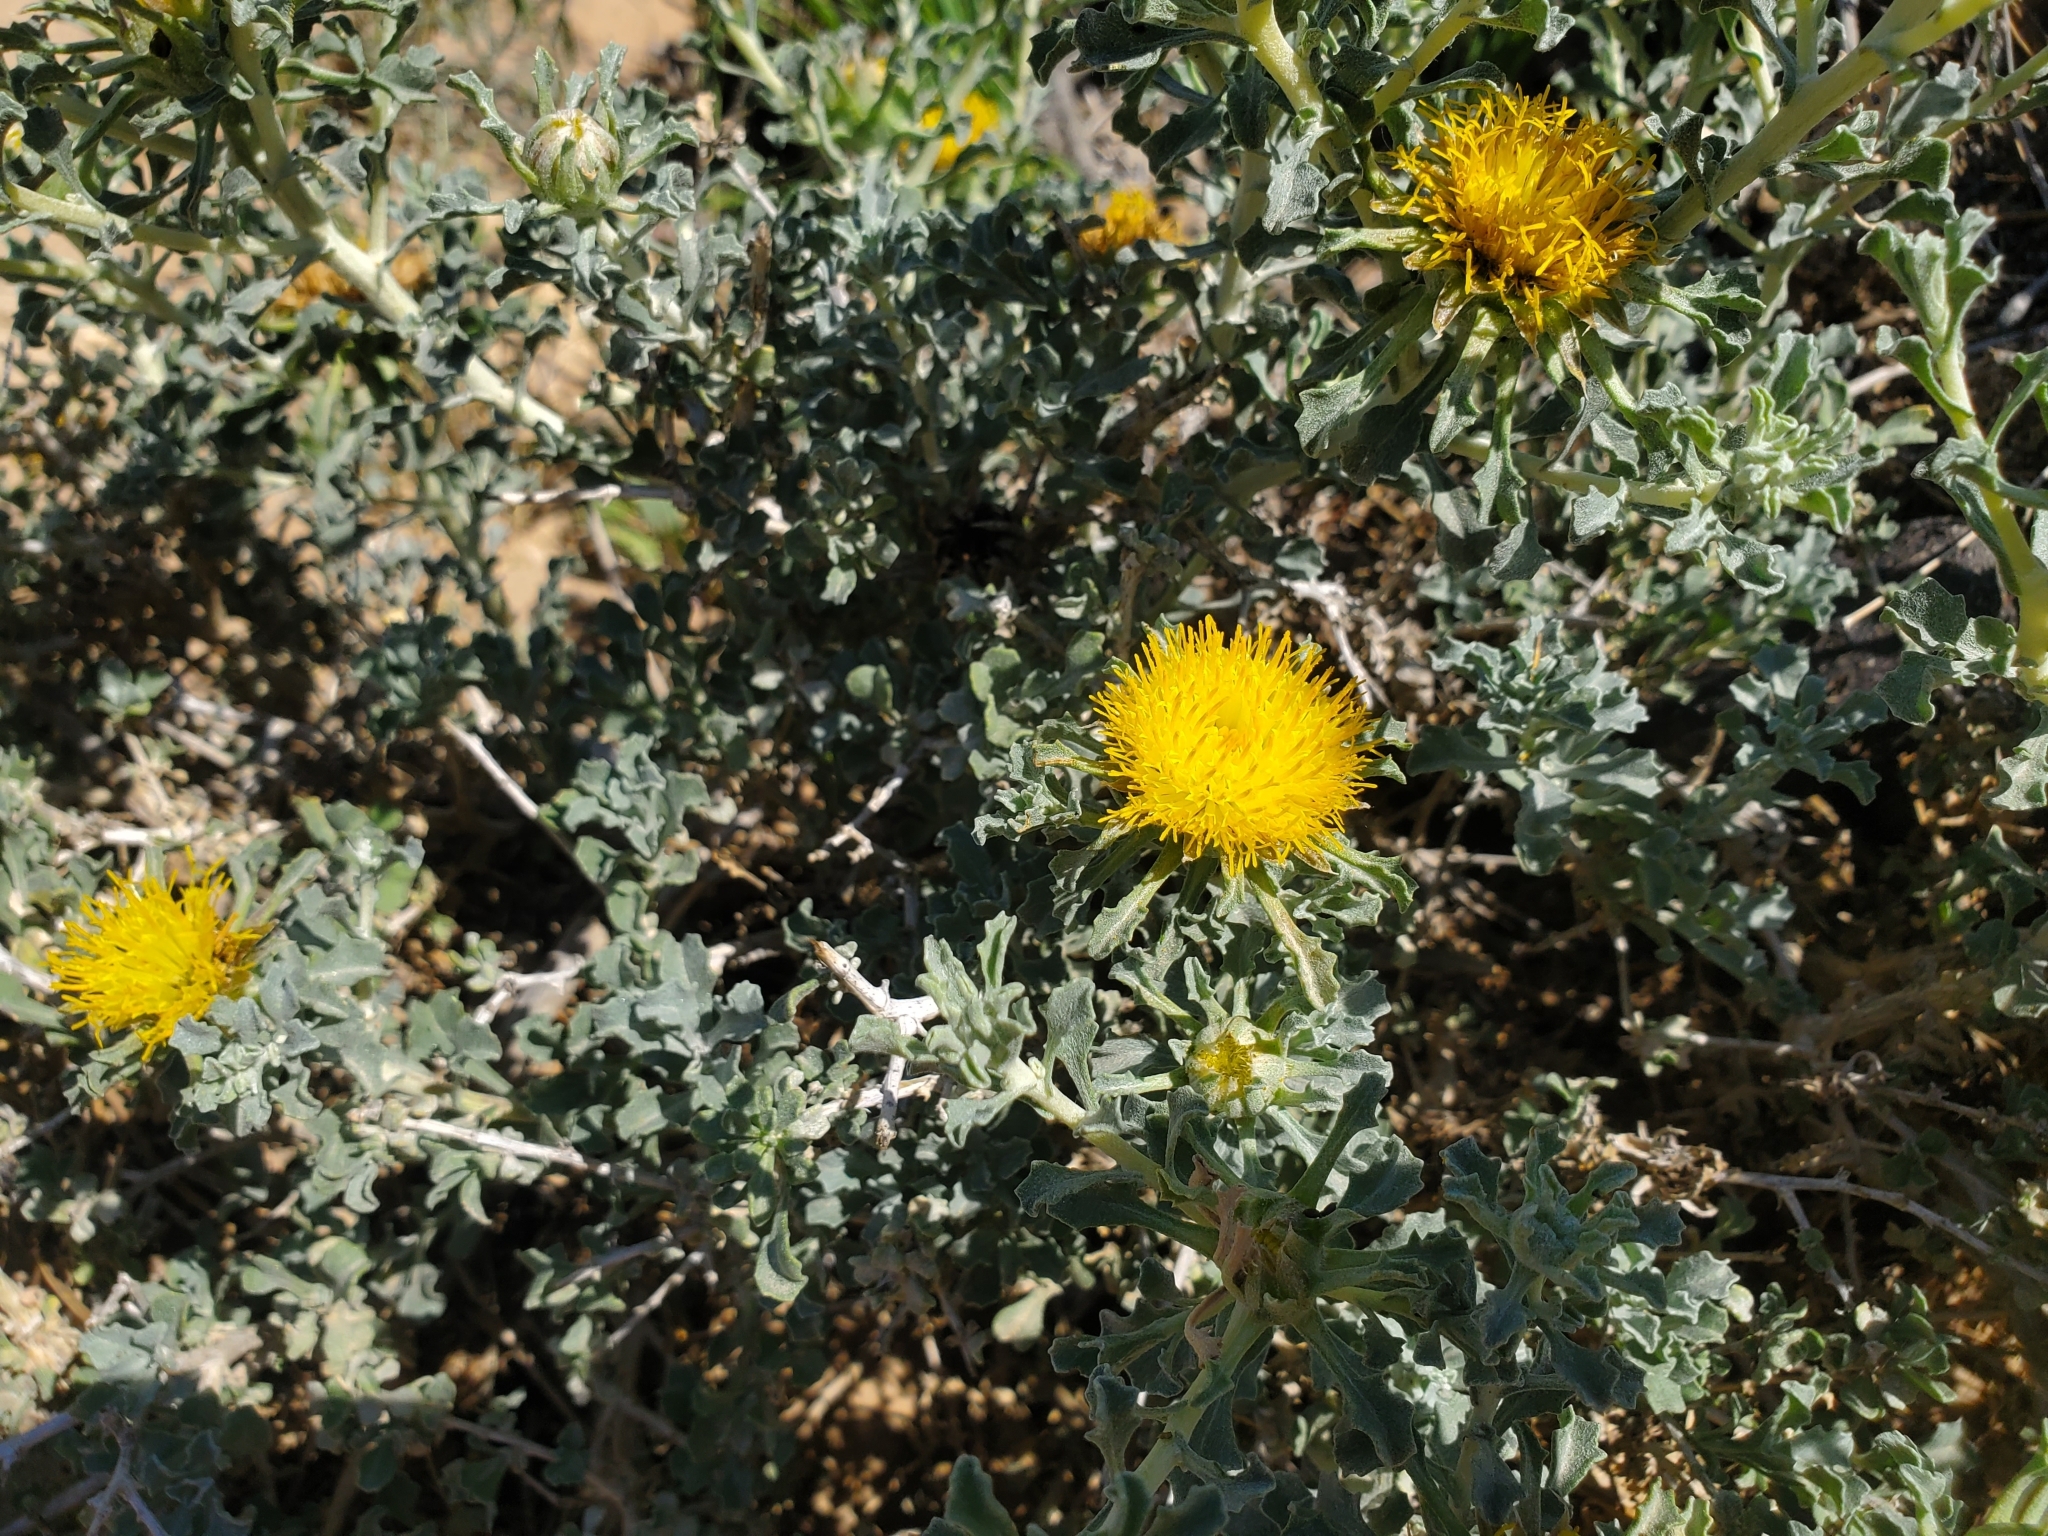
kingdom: Plantae
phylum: Tracheophyta
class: Magnoliopsida
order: Asterales
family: Asteraceae
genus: Anvillea
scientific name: Anvillea garcinii
